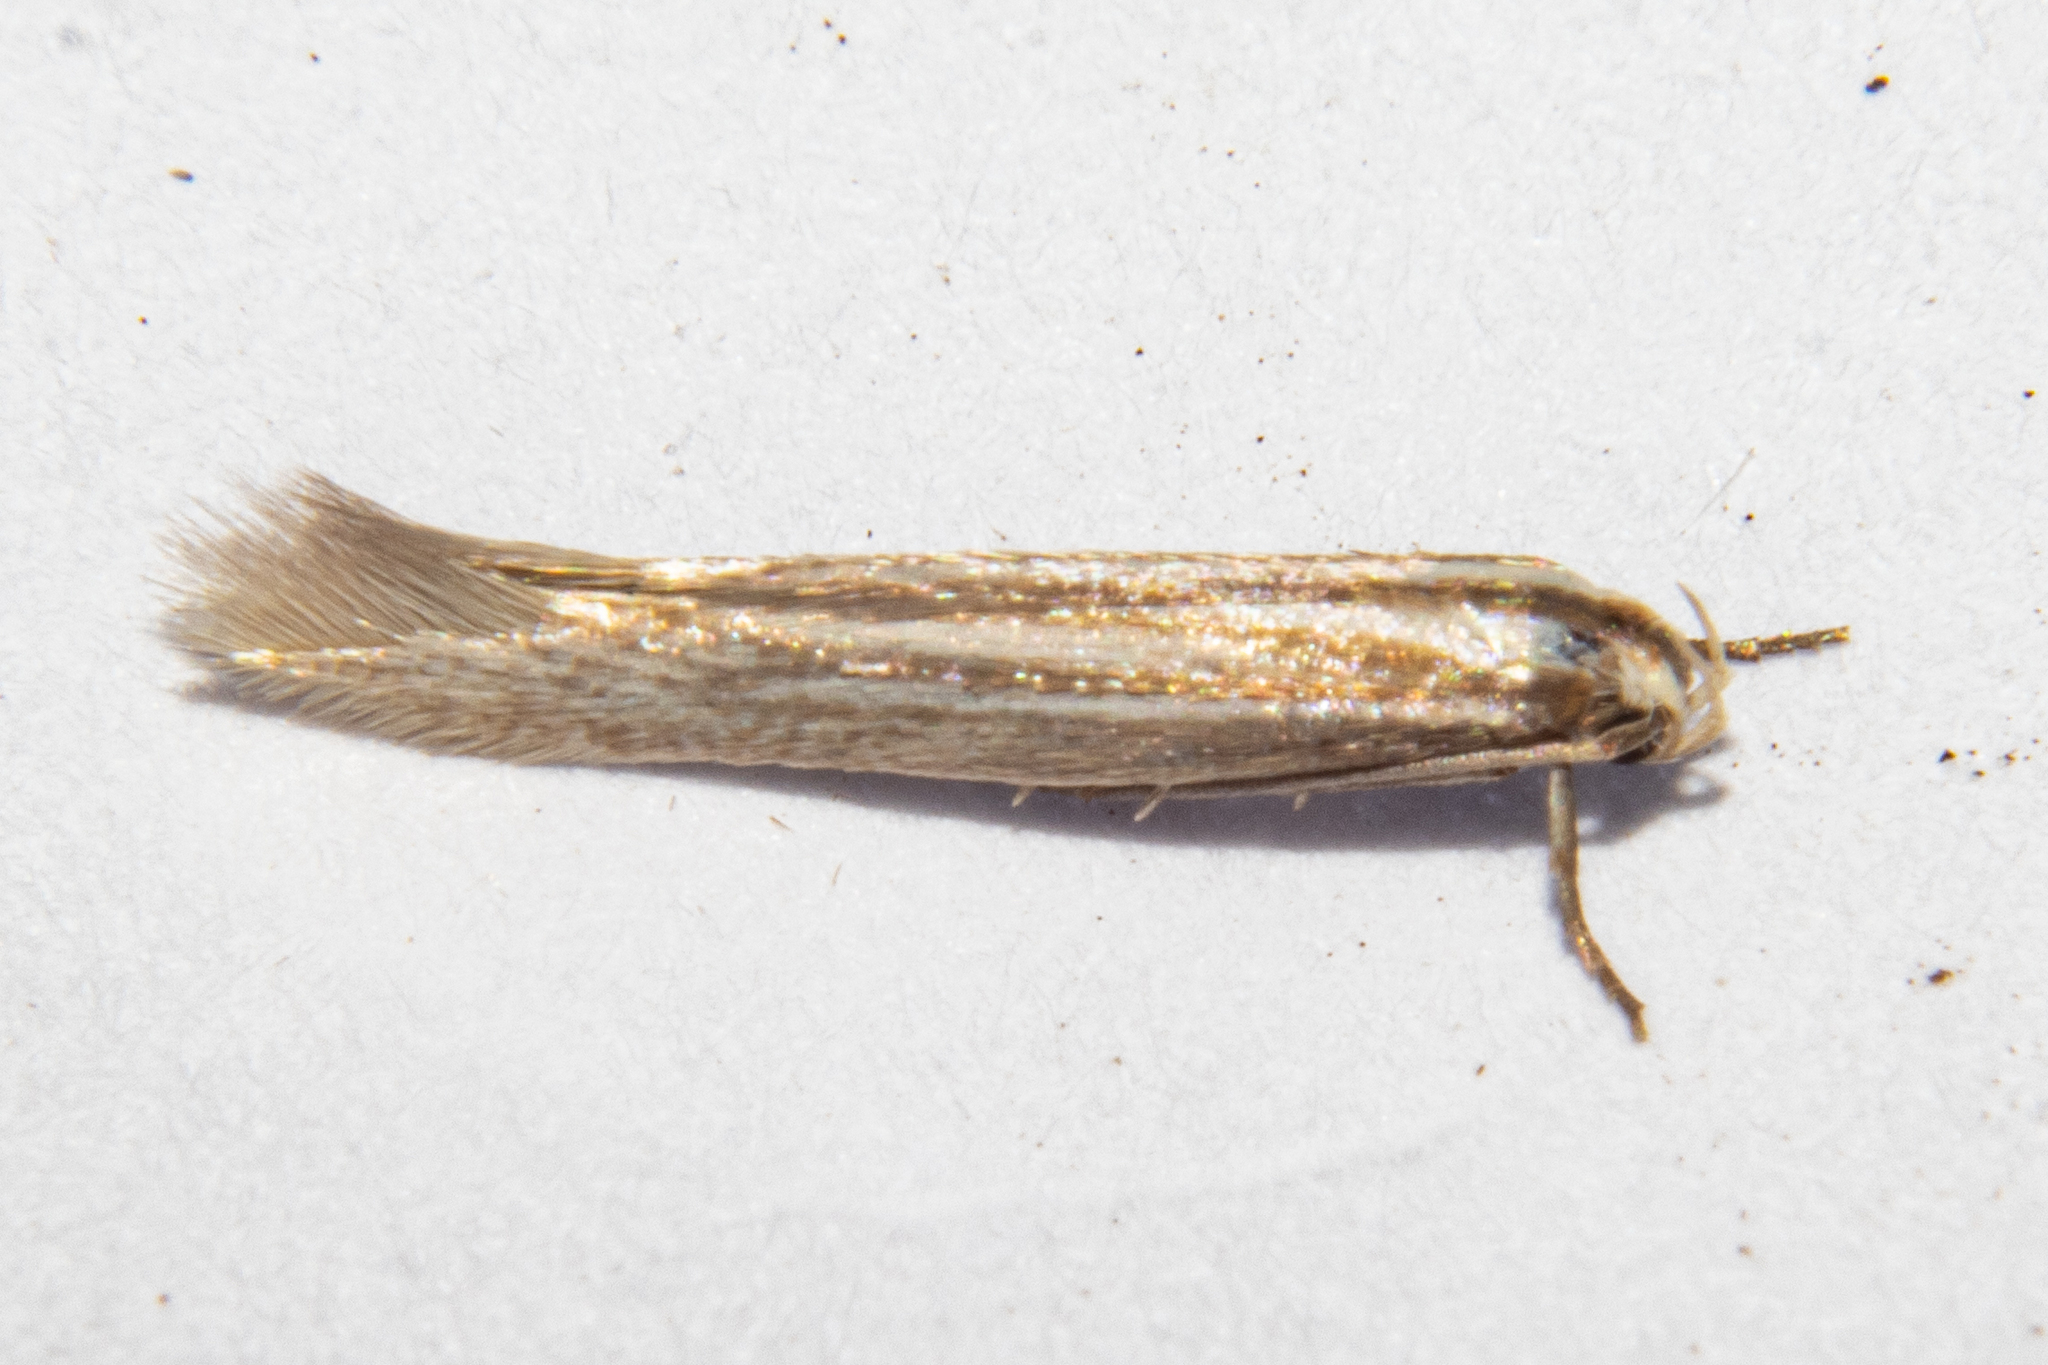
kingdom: Animalia
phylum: Arthropoda
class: Insecta
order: Lepidoptera
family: Elachistidae
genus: Elachista
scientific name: Elachista thallophora
